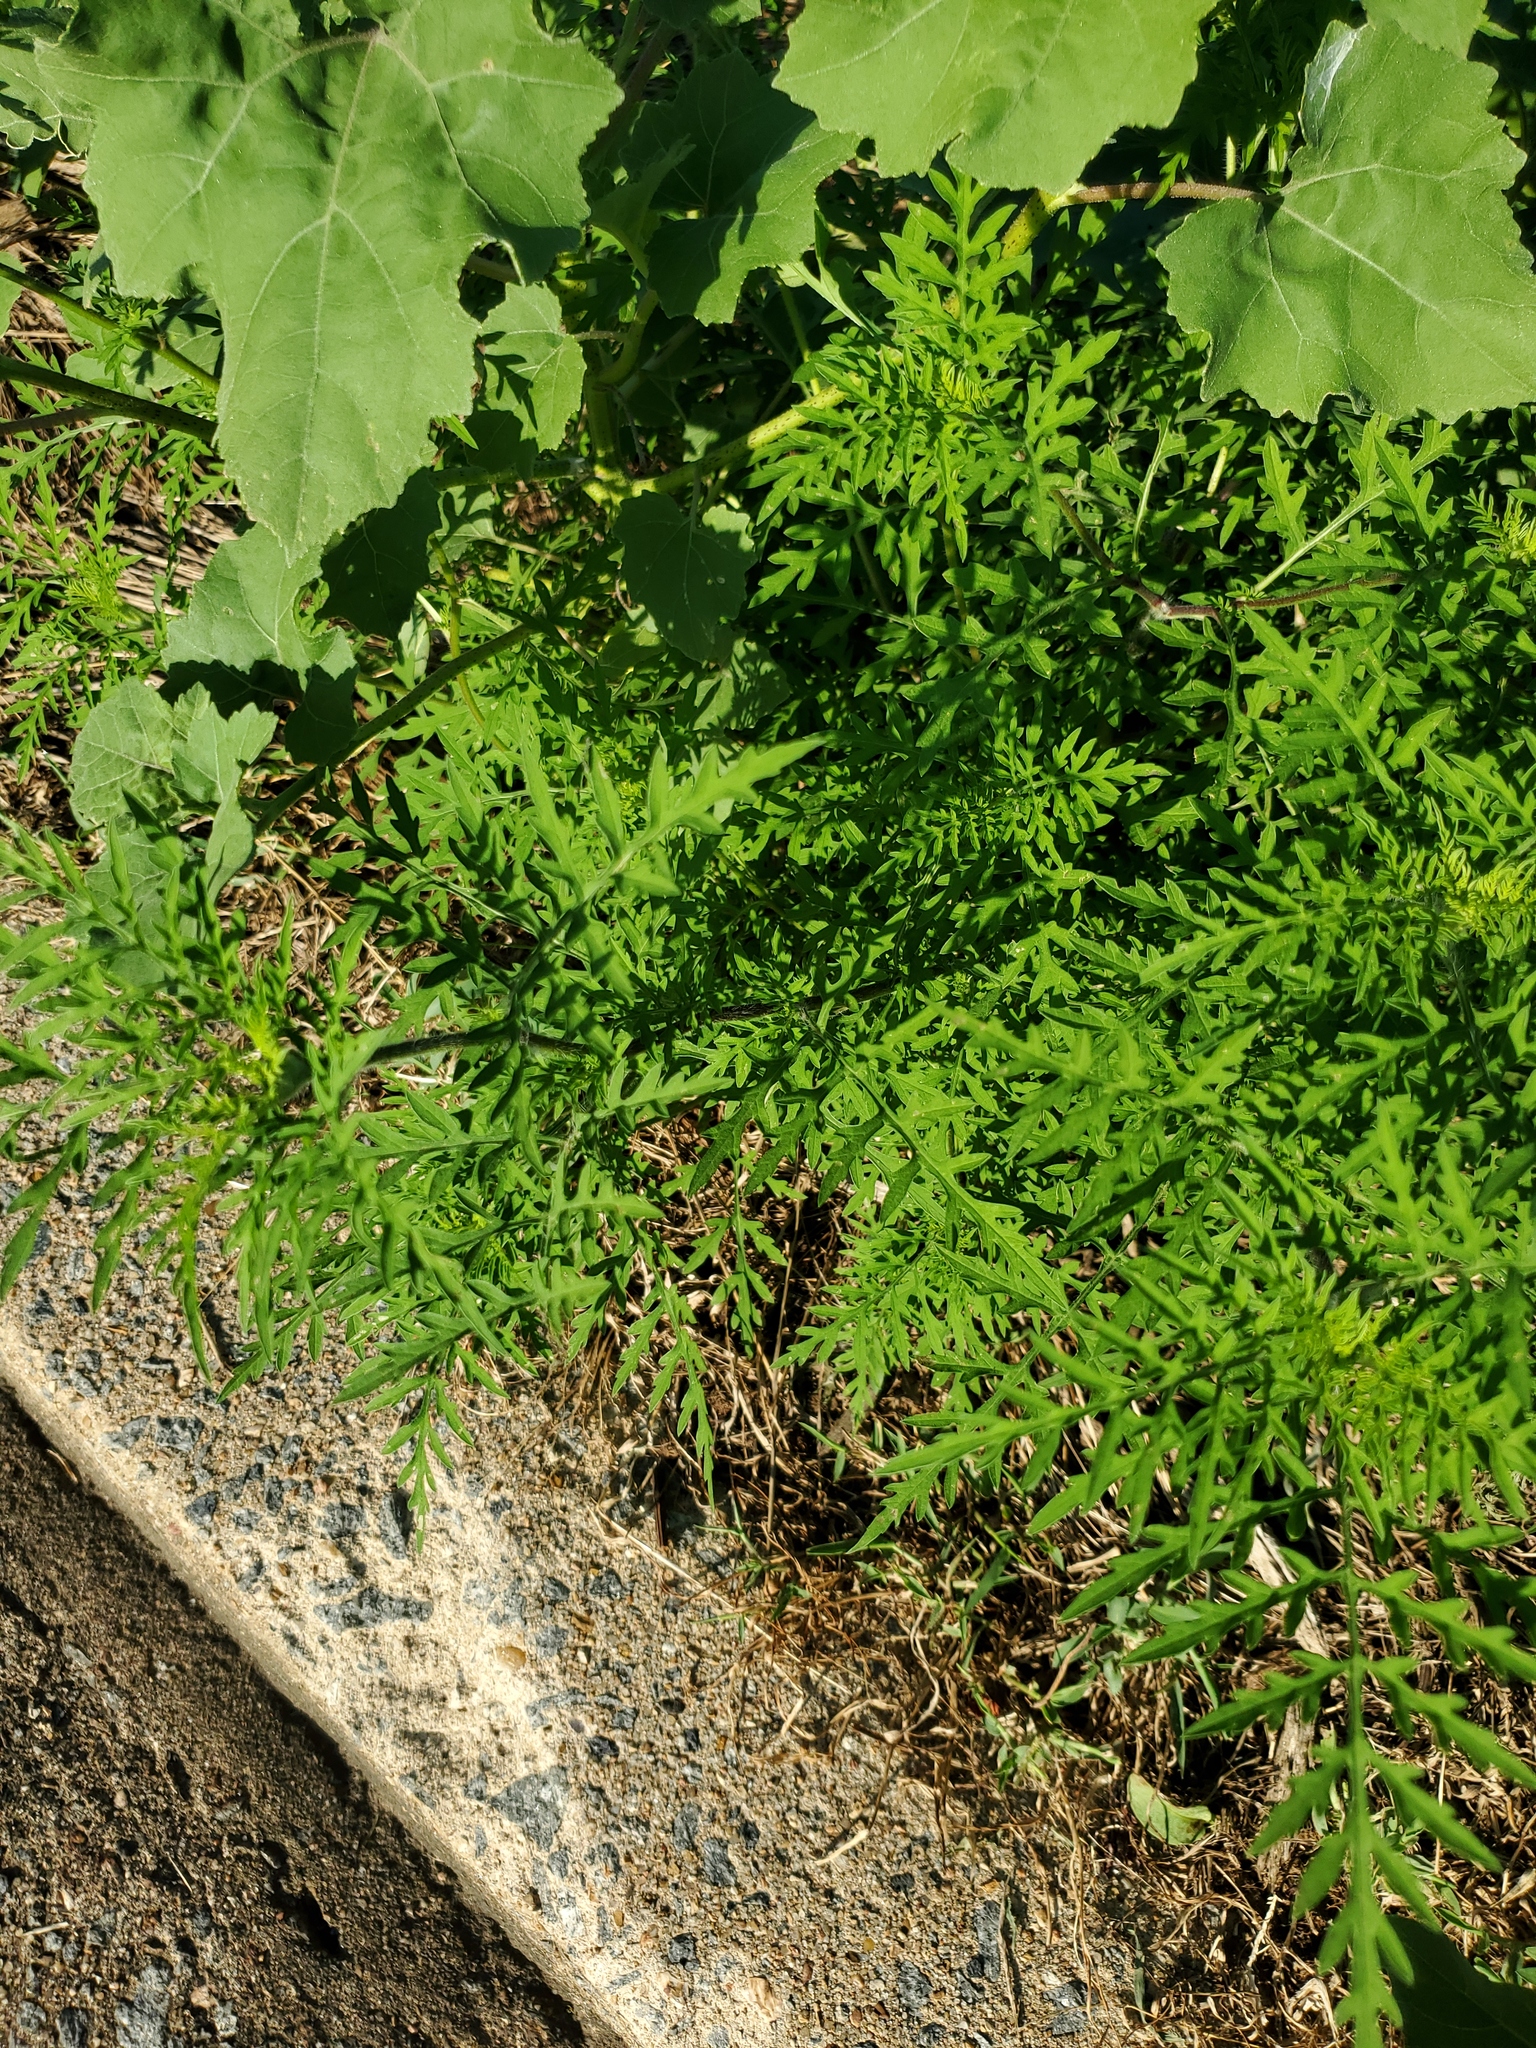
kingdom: Plantae
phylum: Tracheophyta
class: Magnoliopsida
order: Asterales
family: Asteraceae
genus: Ambrosia
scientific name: Ambrosia artemisiifolia
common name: Annual ragweed
